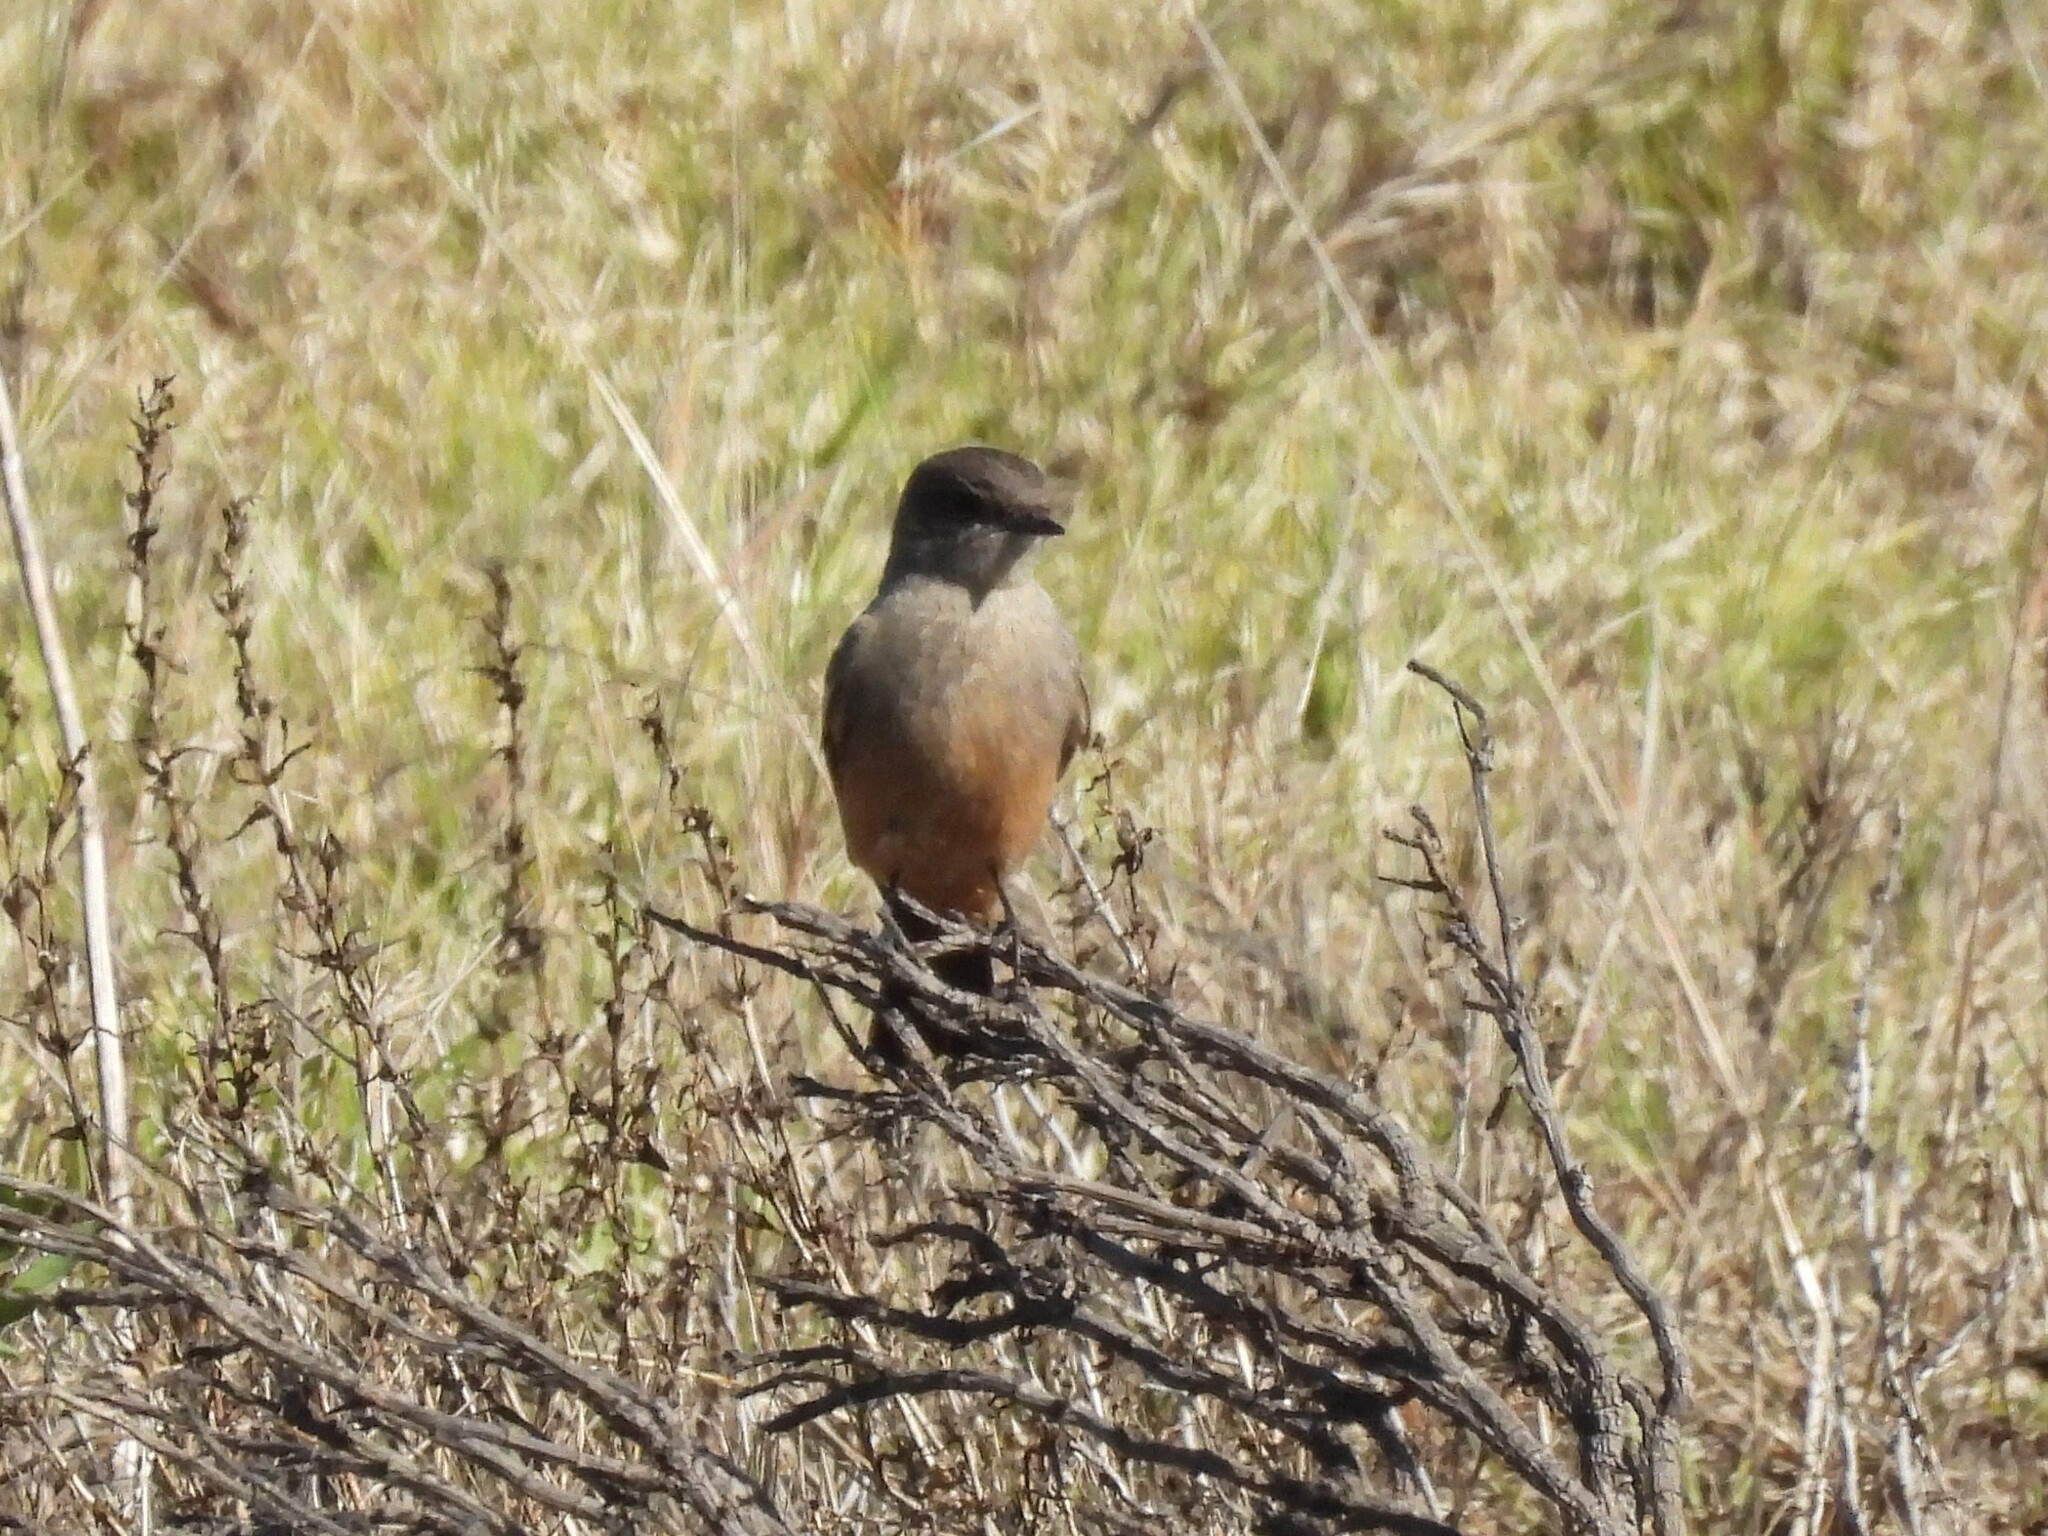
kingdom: Animalia
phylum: Chordata
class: Aves
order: Passeriformes
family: Tyrannidae
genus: Sayornis
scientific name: Sayornis saya
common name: Say's phoebe
